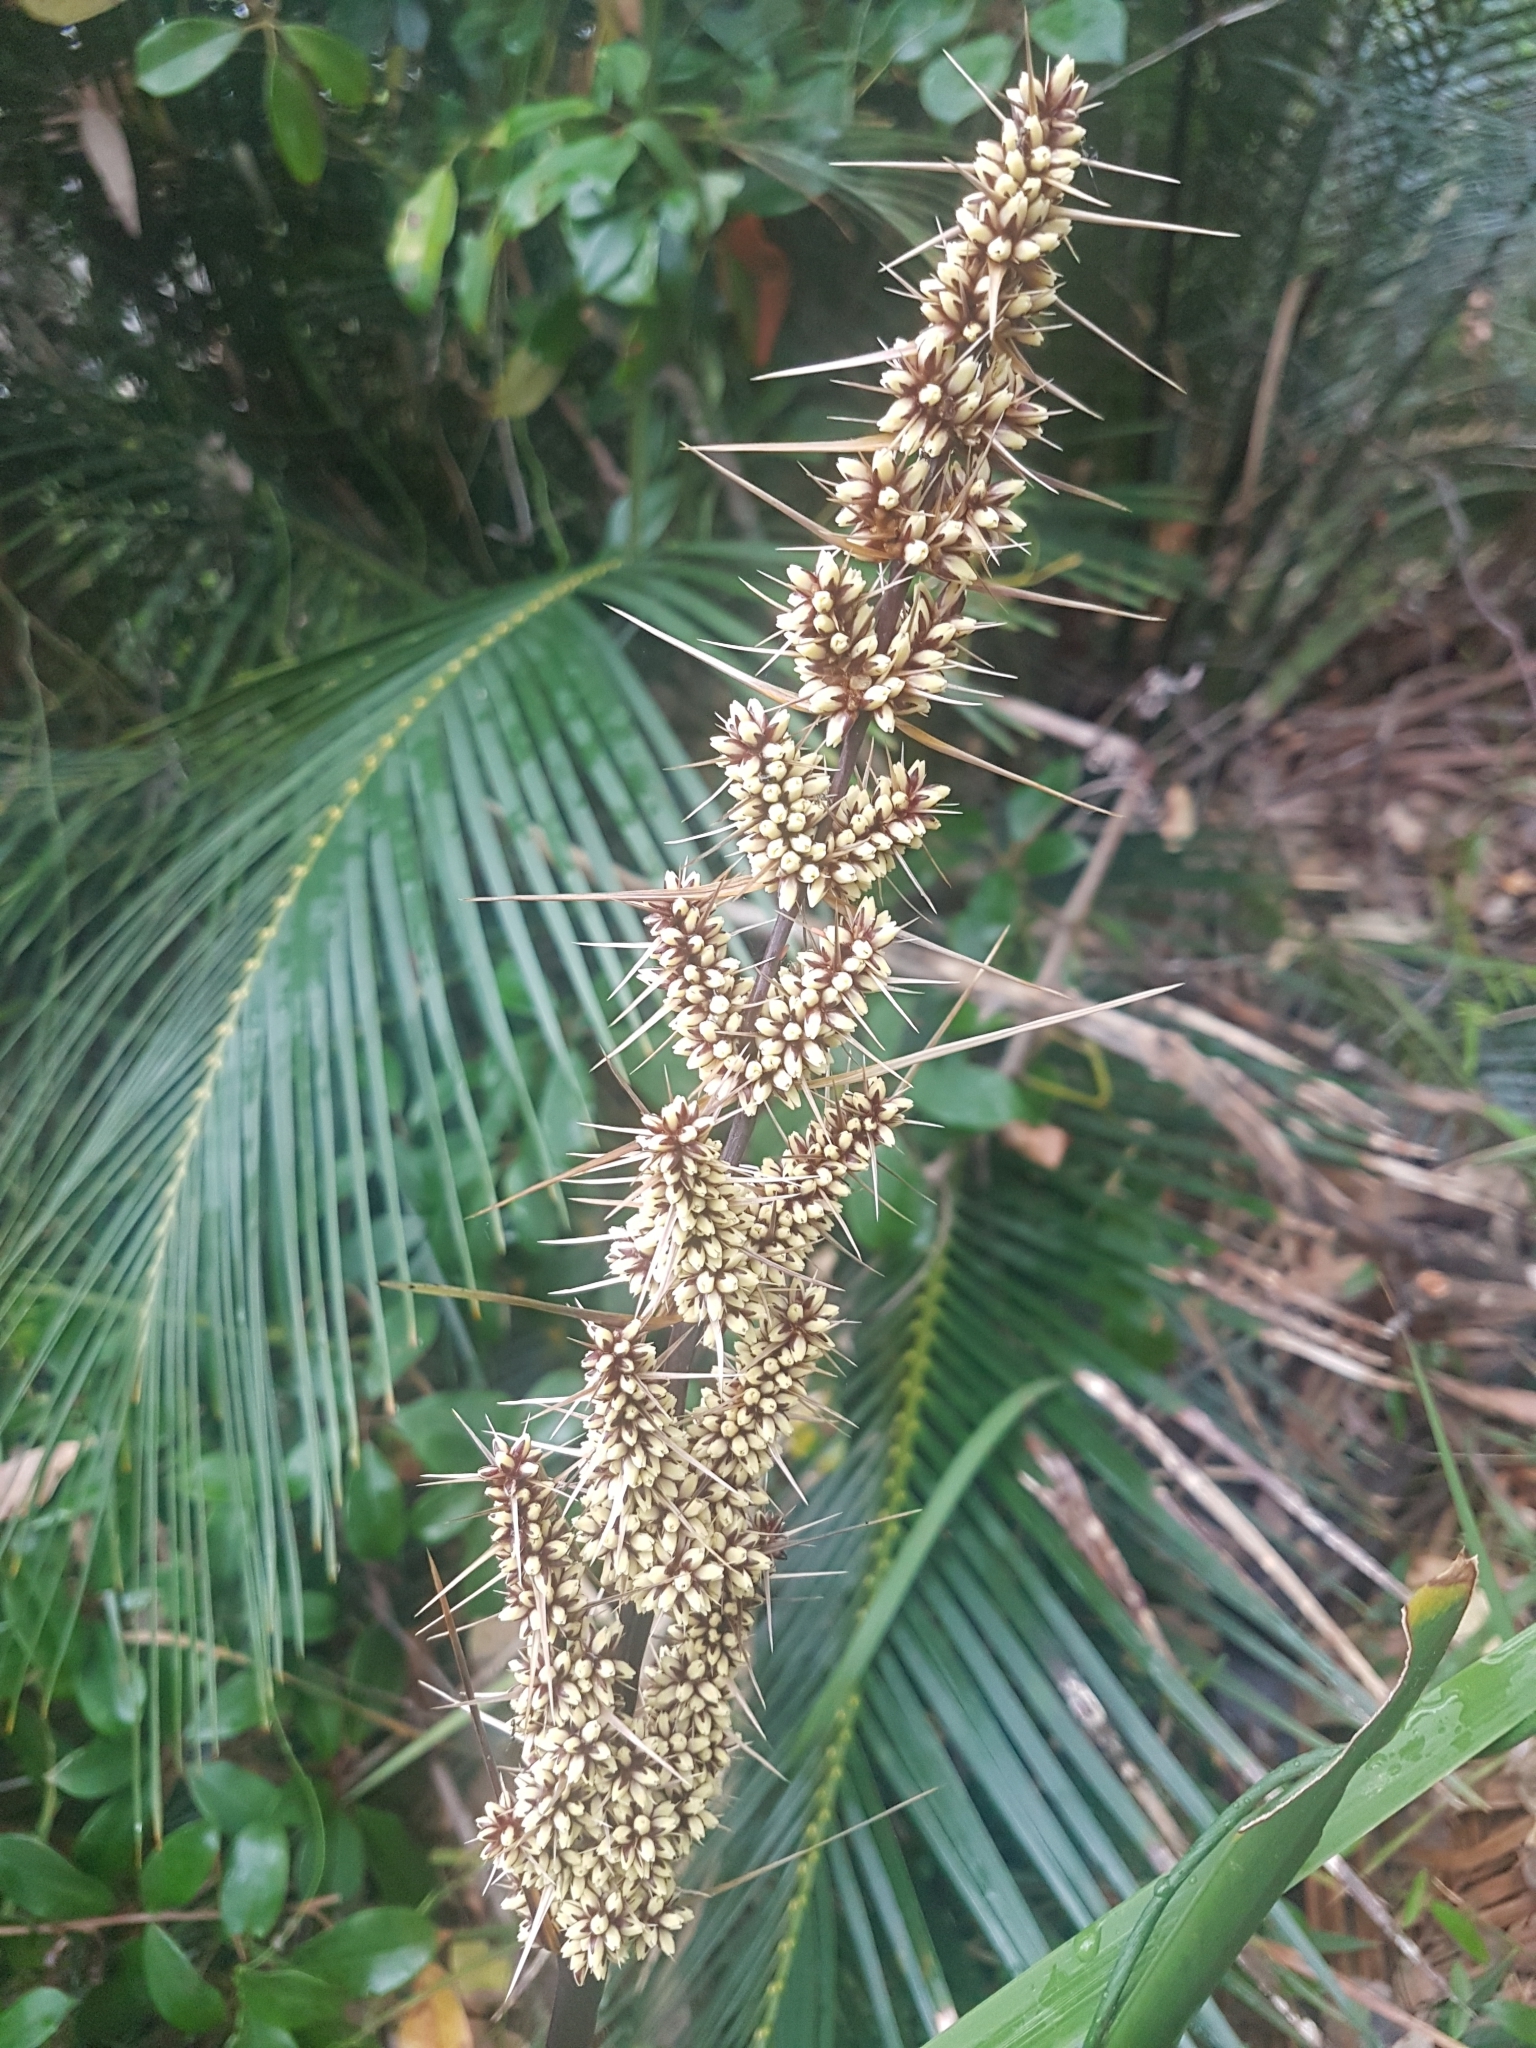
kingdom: Plantae
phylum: Tracheophyta
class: Liliopsida
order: Asparagales
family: Asparagaceae
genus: Lomandra
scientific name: Lomandra longifolia
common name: Longleaf mat-rush
